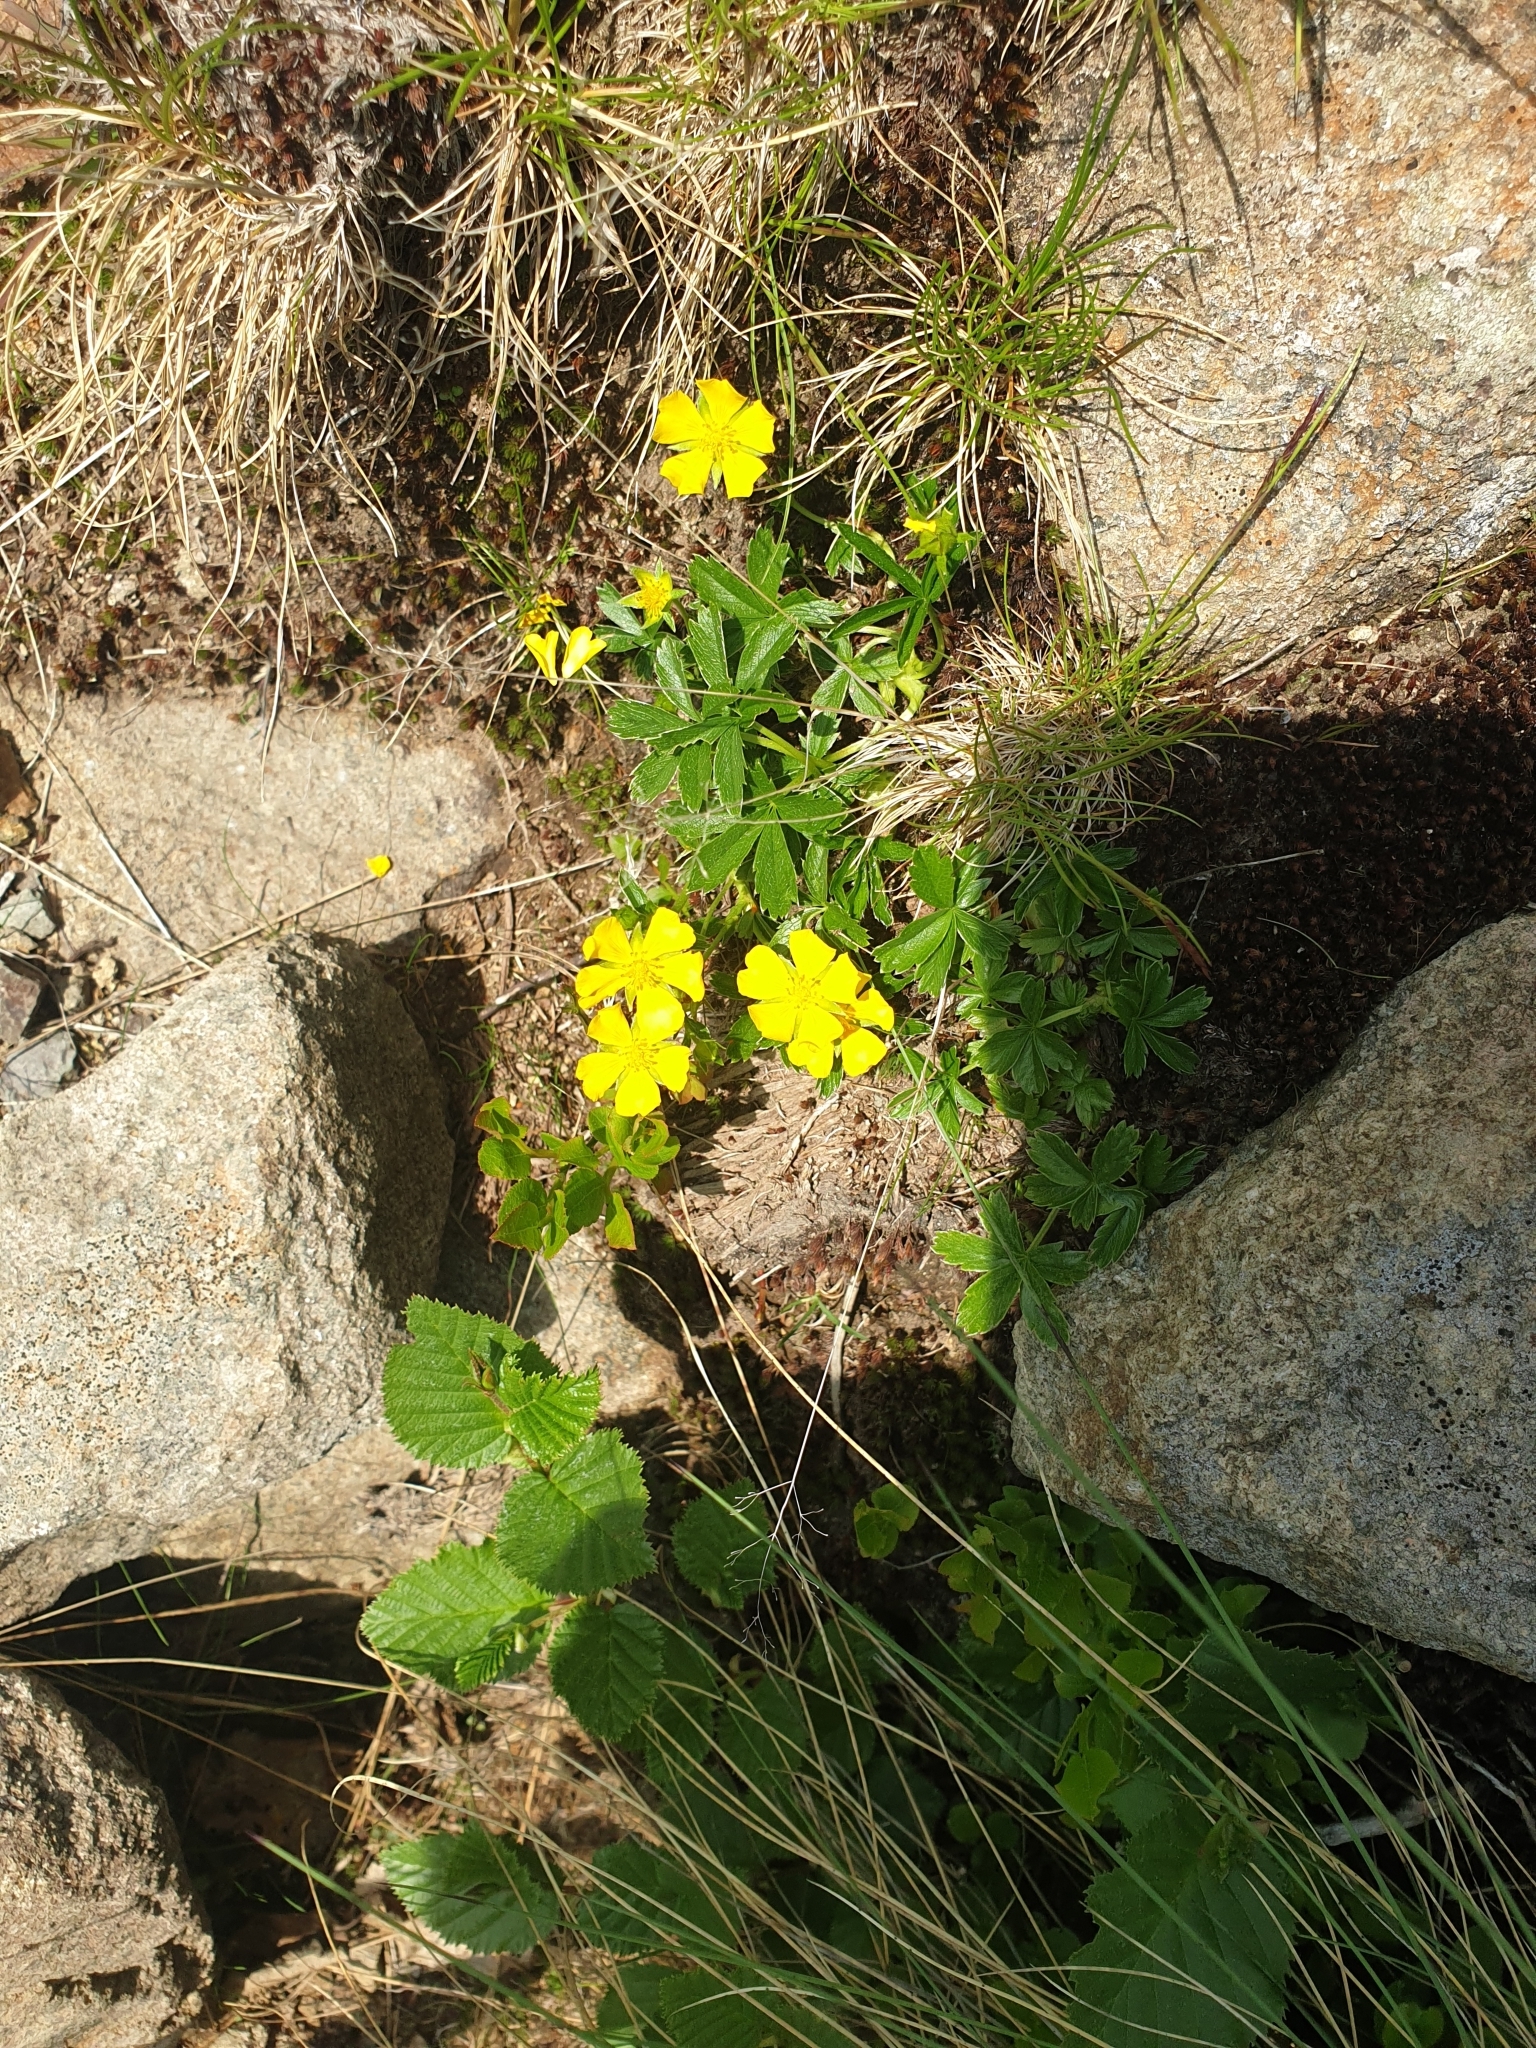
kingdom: Plantae
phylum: Tracheophyta
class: Magnoliopsida
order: Rosales
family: Rosaceae
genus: Potentilla
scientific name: Potentilla aurea
